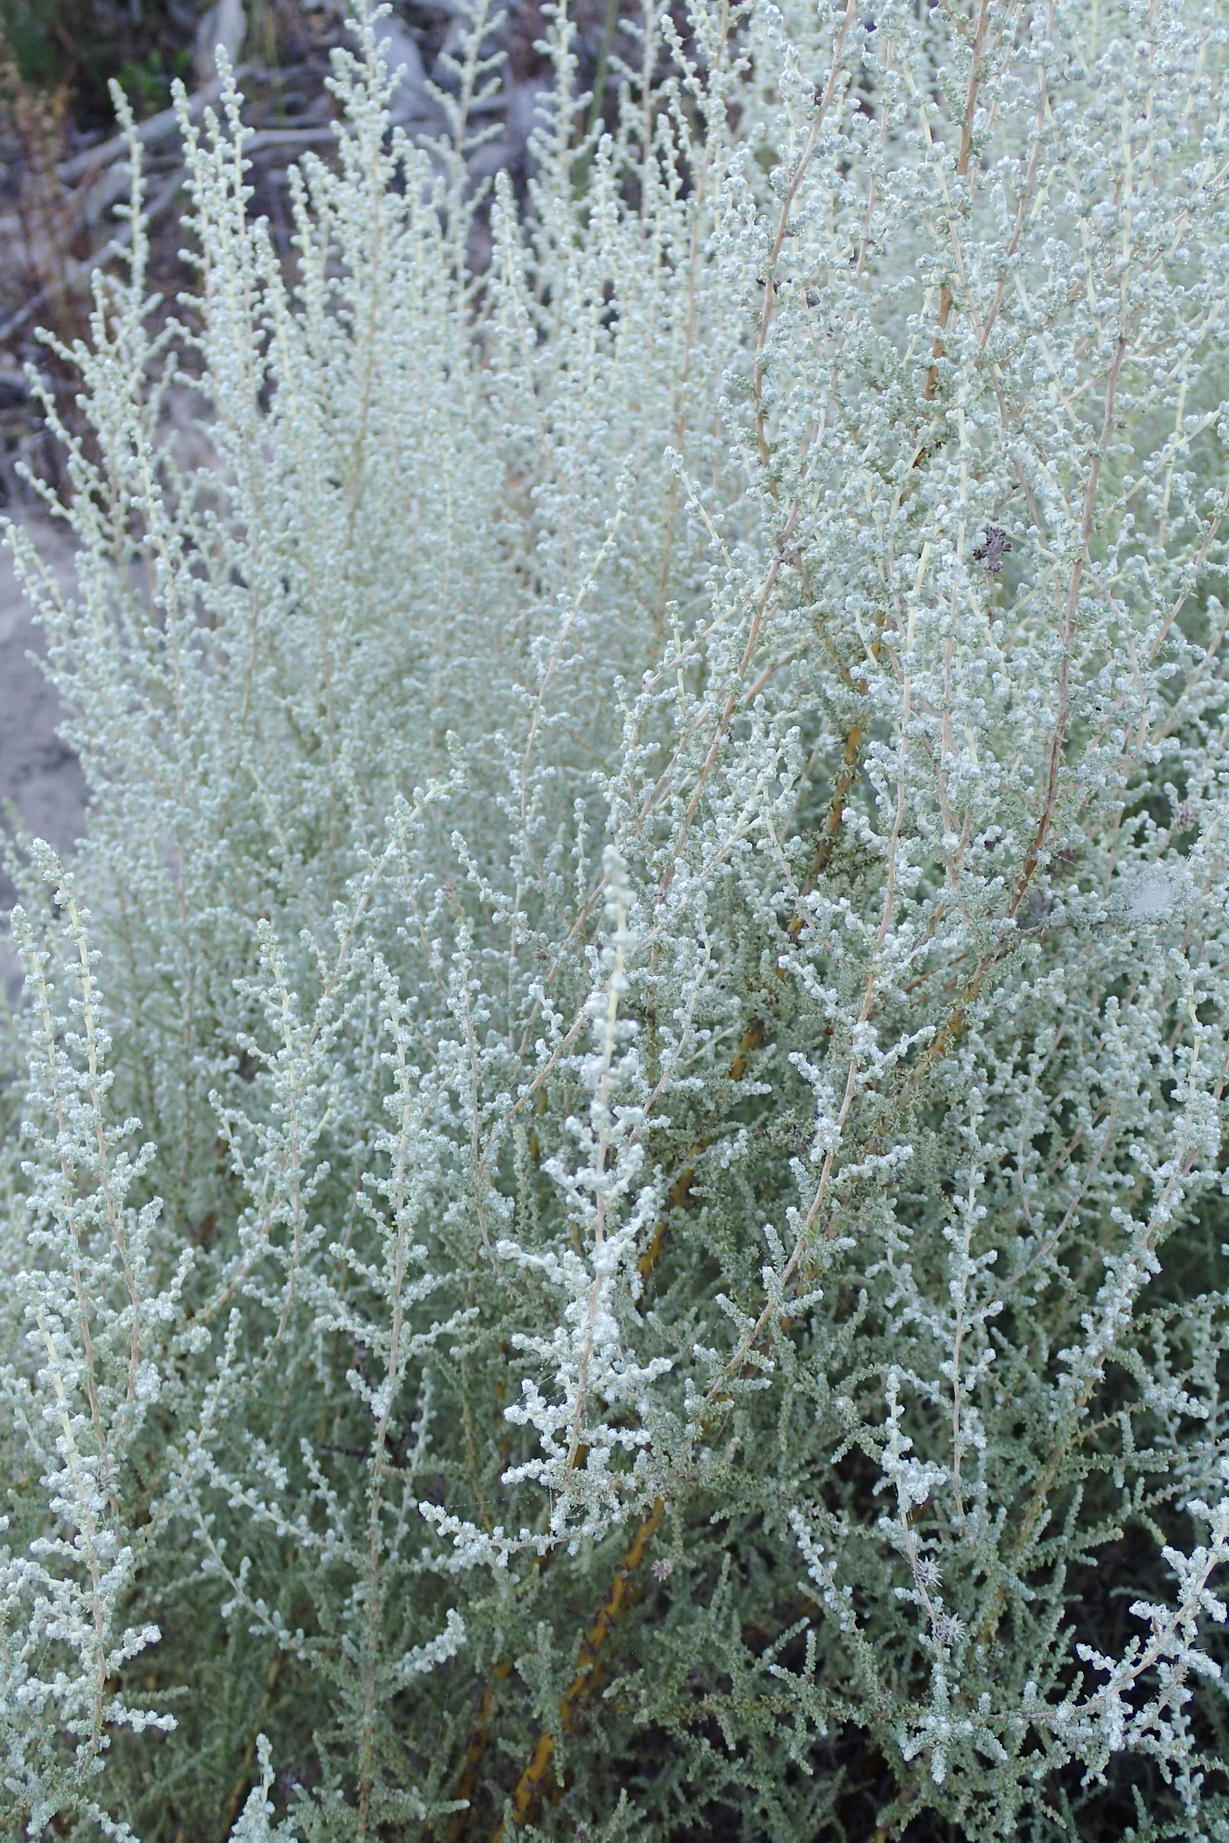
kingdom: Plantae
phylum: Tracheophyta
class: Magnoliopsida
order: Asterales
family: Asteraceae
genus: Seriphium
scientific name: Seriphium plumosum
